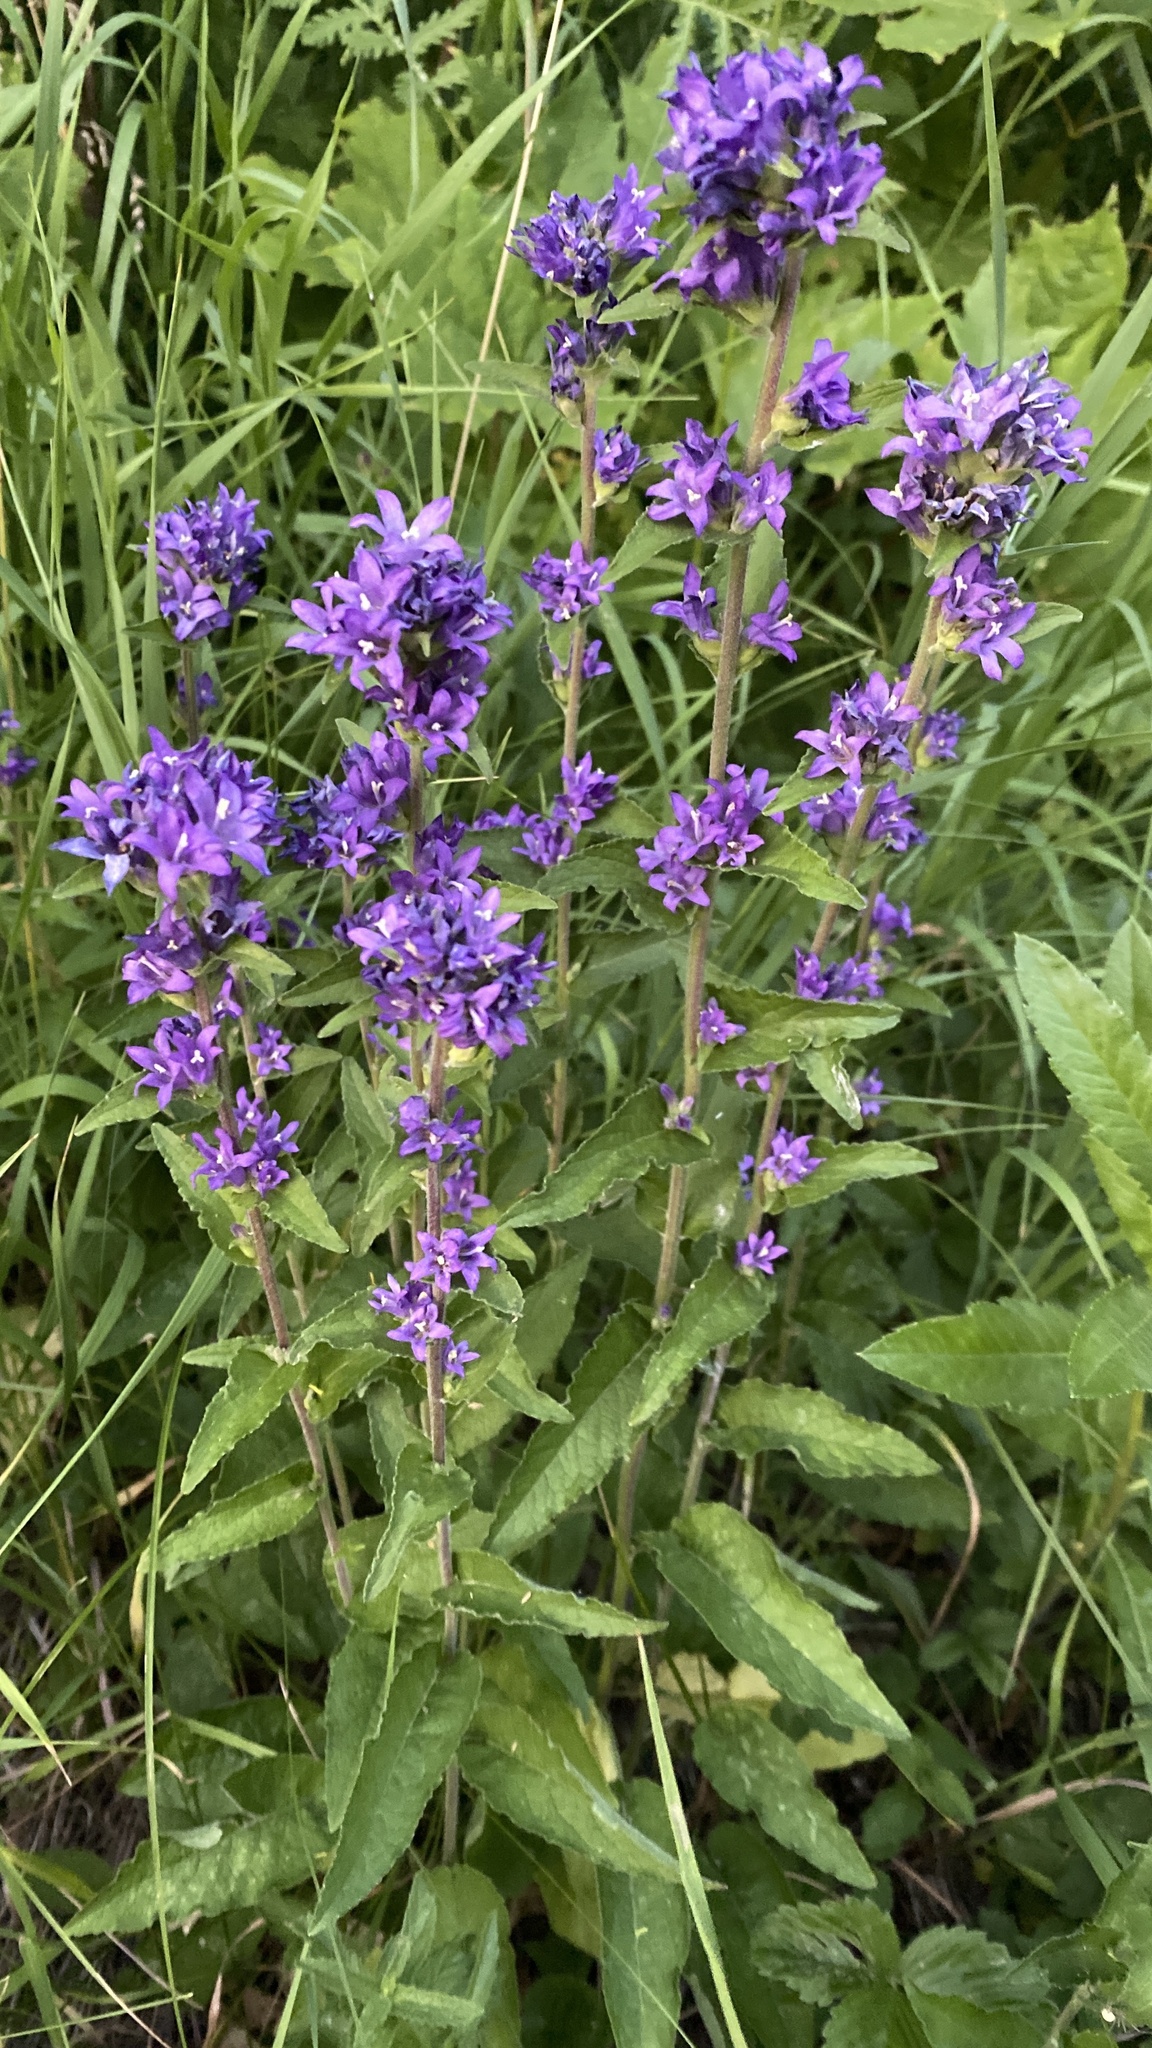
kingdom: Plantae
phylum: Tracheophyta
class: Magnoliopsida
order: Asterales
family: Campanulaceae
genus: Campanula
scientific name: Campanula glomerata
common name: Clustered bellflower
